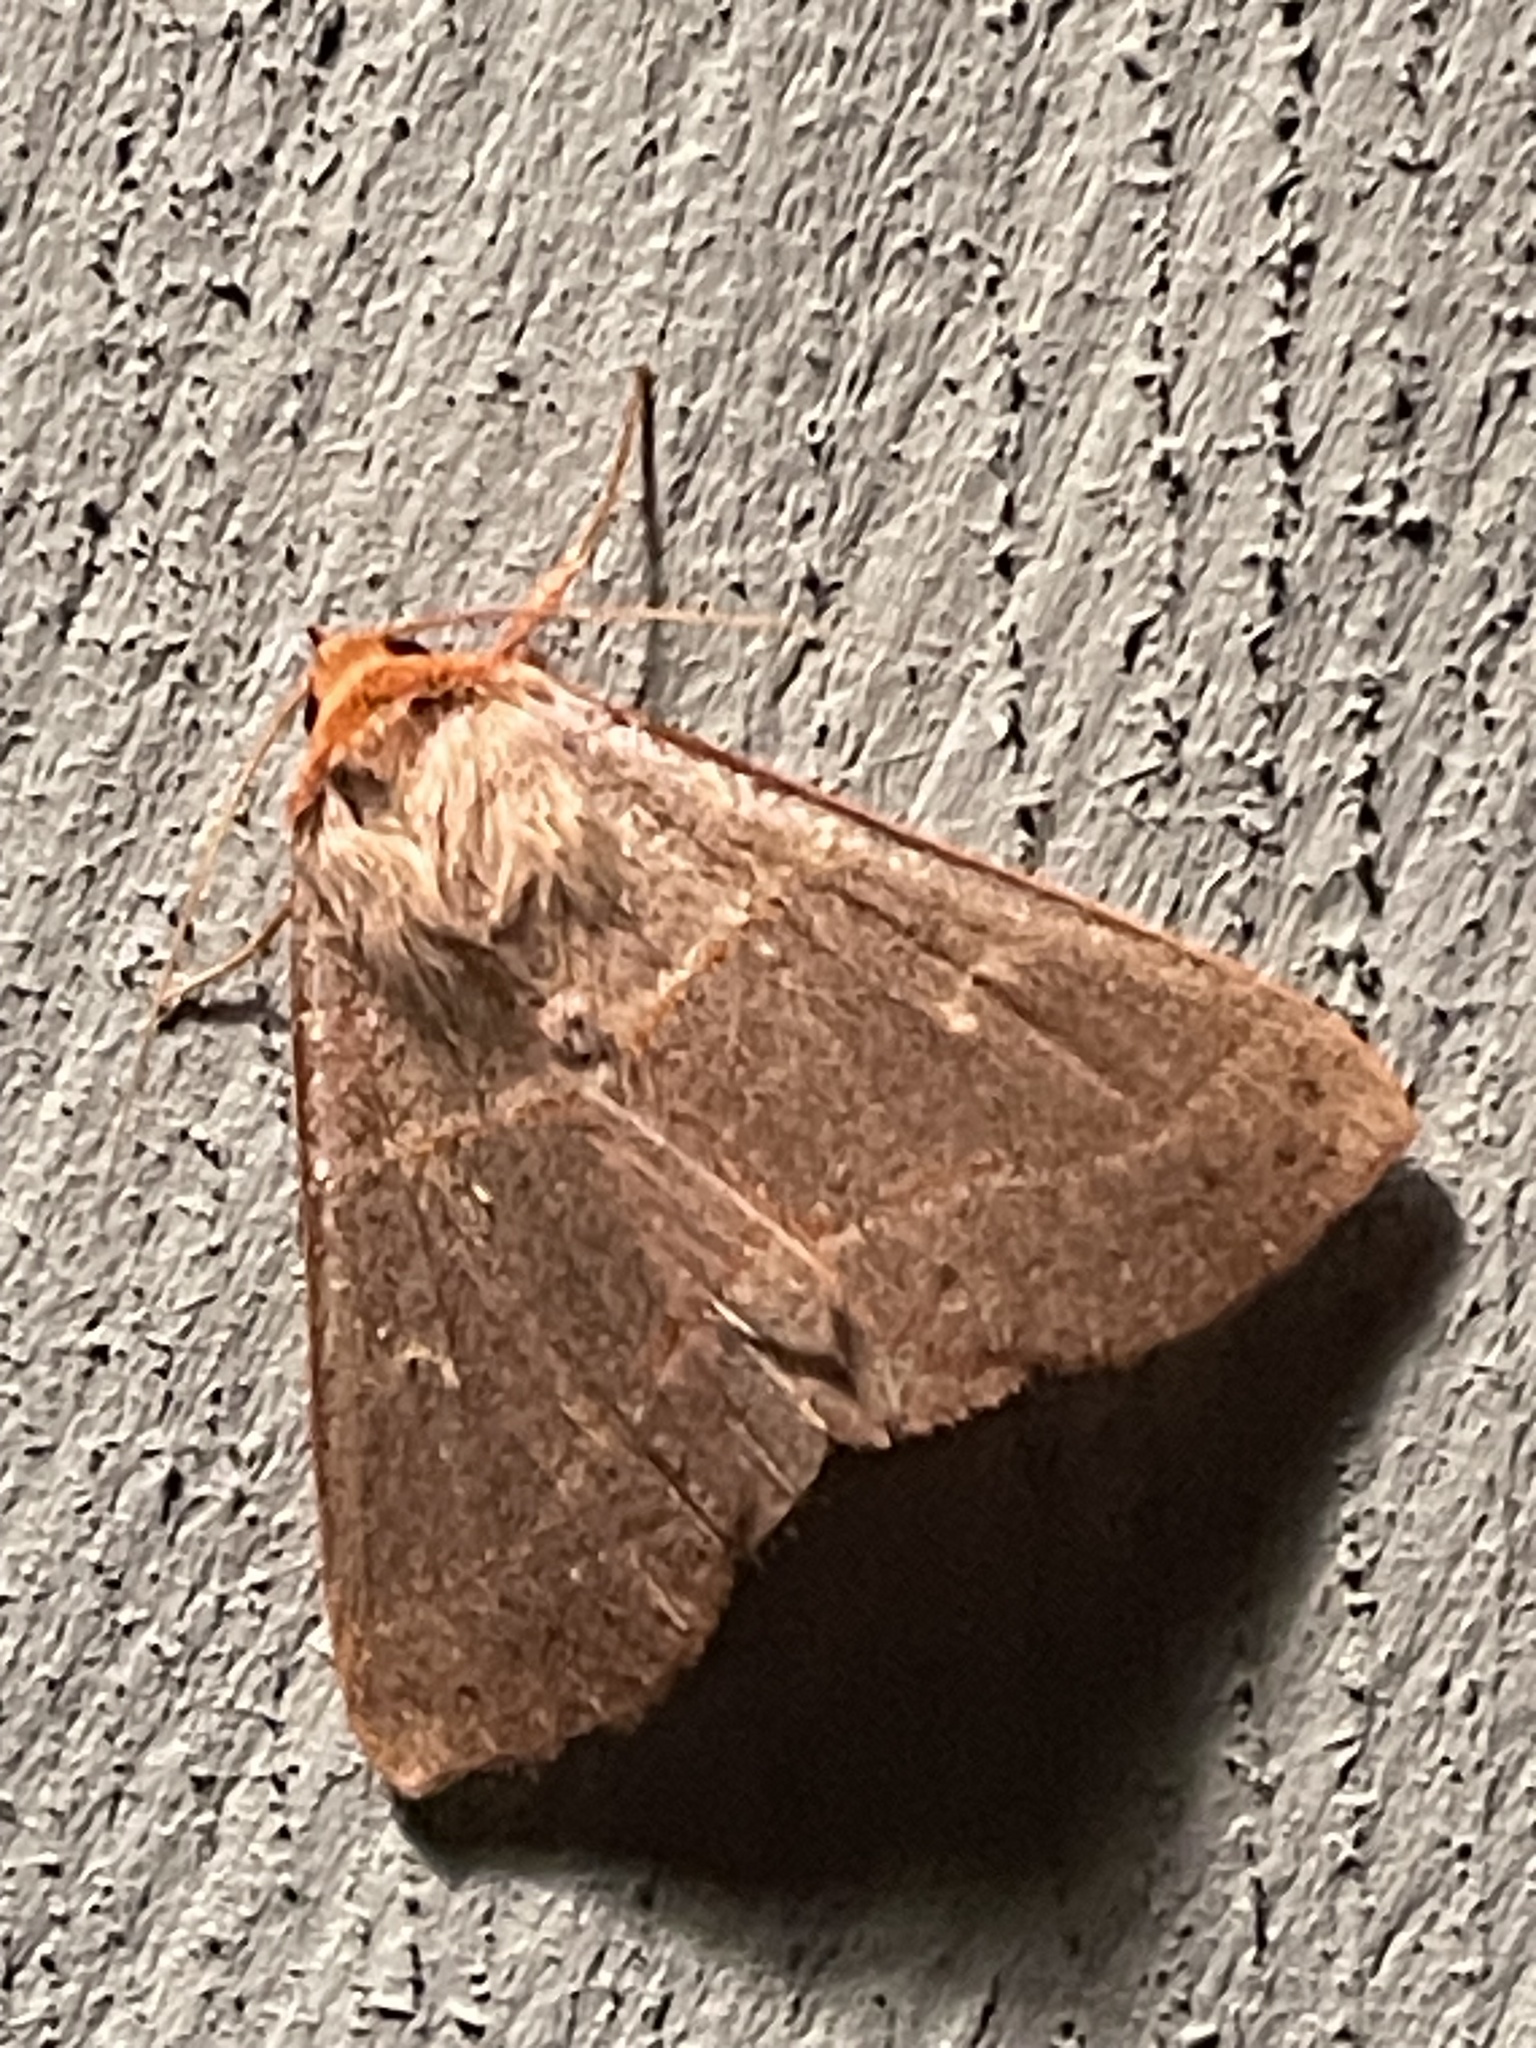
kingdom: Animalia
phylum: Arthropoda
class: Insecta
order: Lepidoptera
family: Erebidae
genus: Panopoda
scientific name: Panopoda rufimargo
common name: Red-lined panopoda moth
